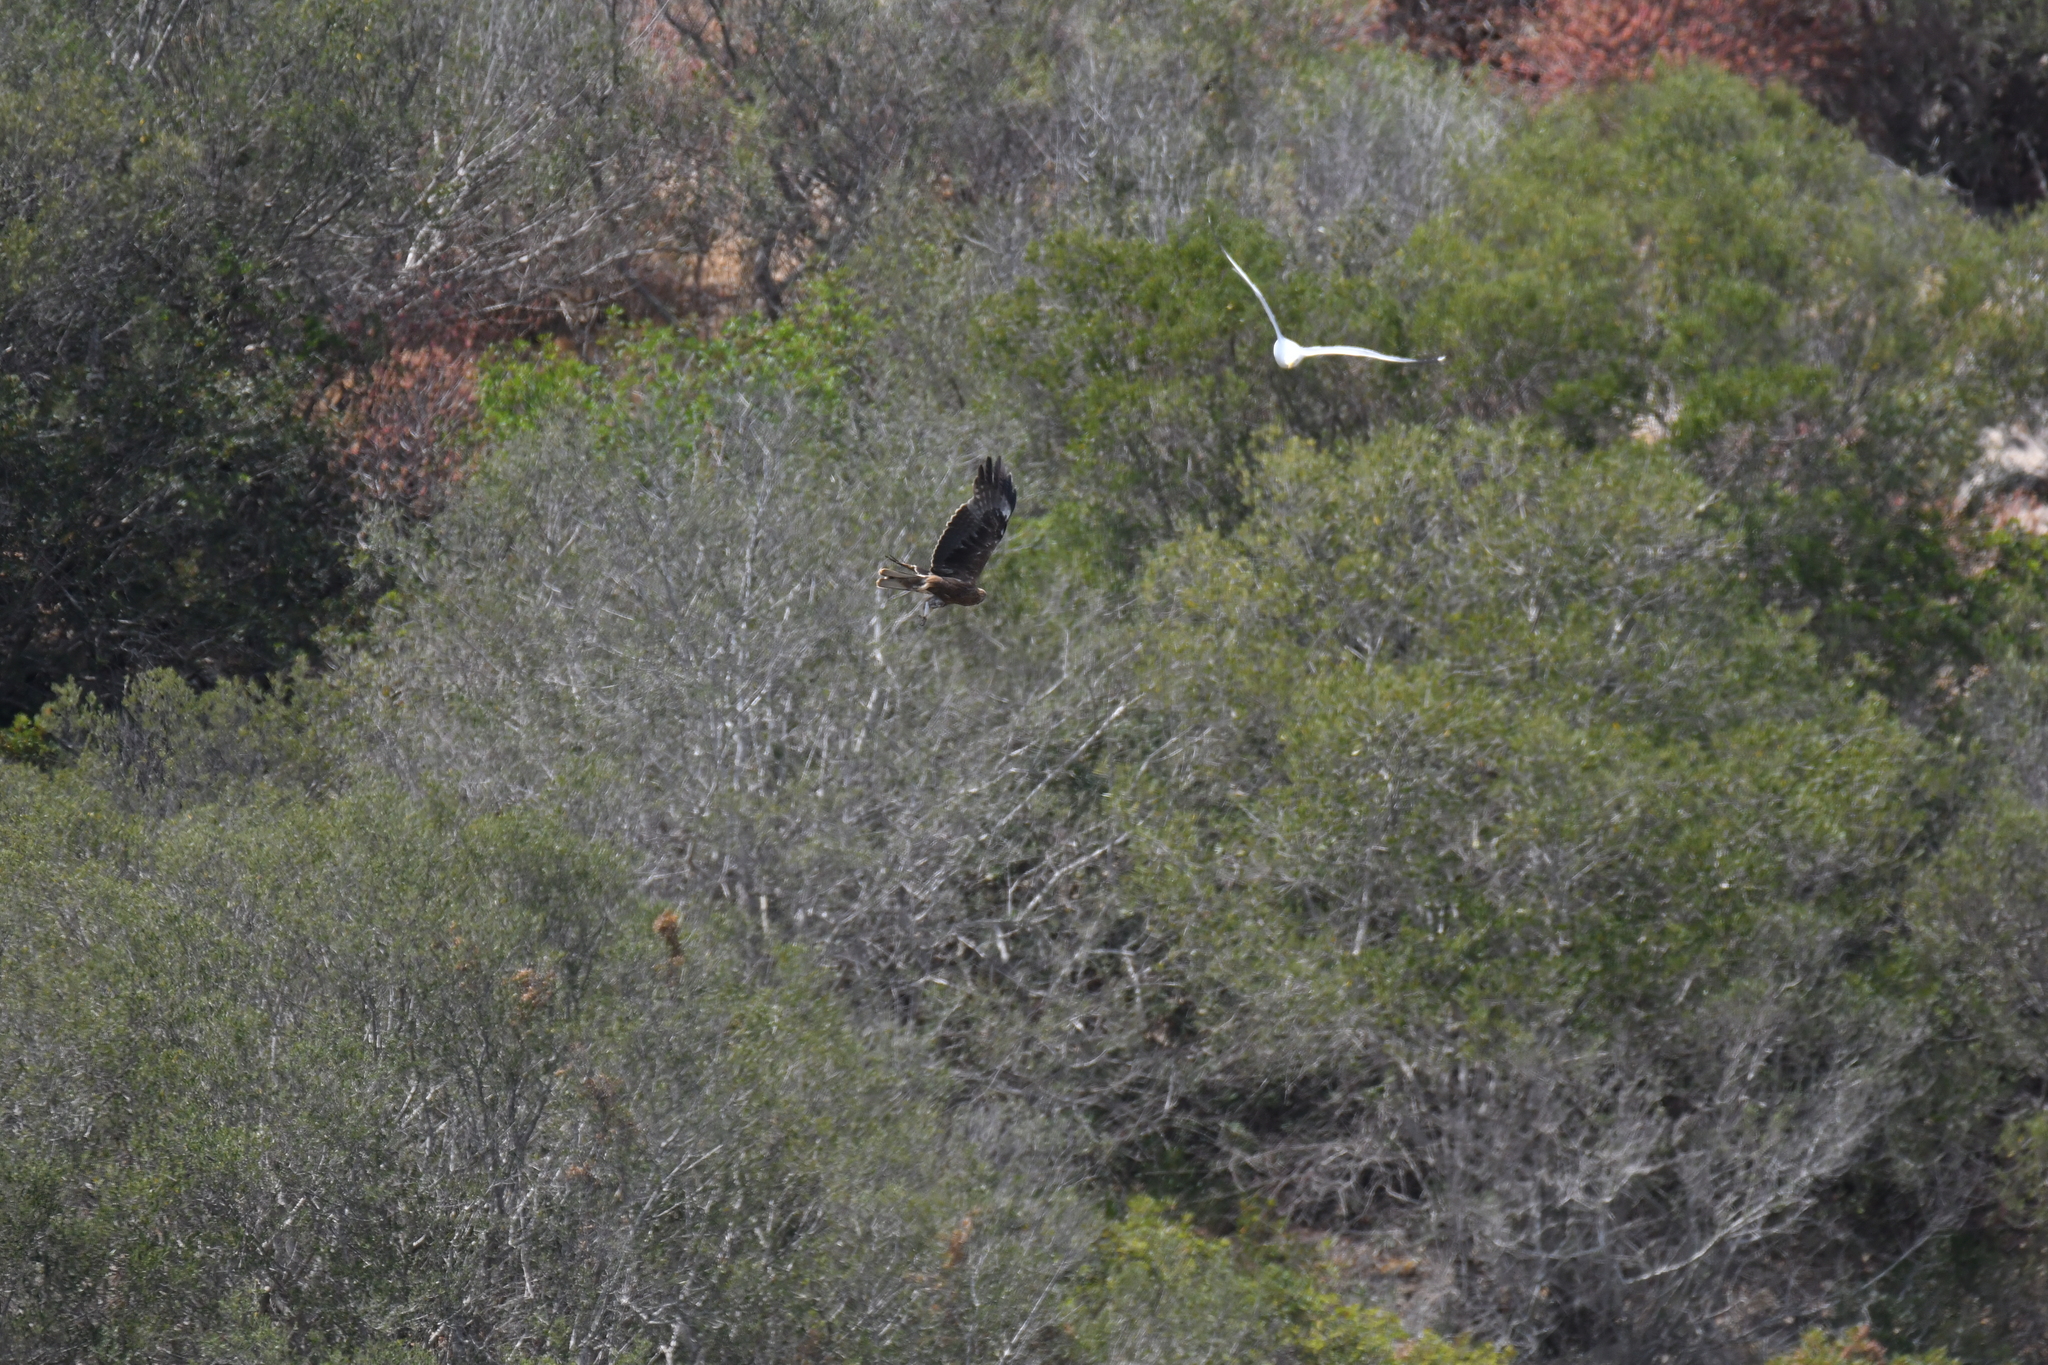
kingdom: Animalia
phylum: Chordata
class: Aves
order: Accipitriformes
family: Accipitridae
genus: Hieraaetus
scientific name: Hieraaetus pennatus
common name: Booted eagle
